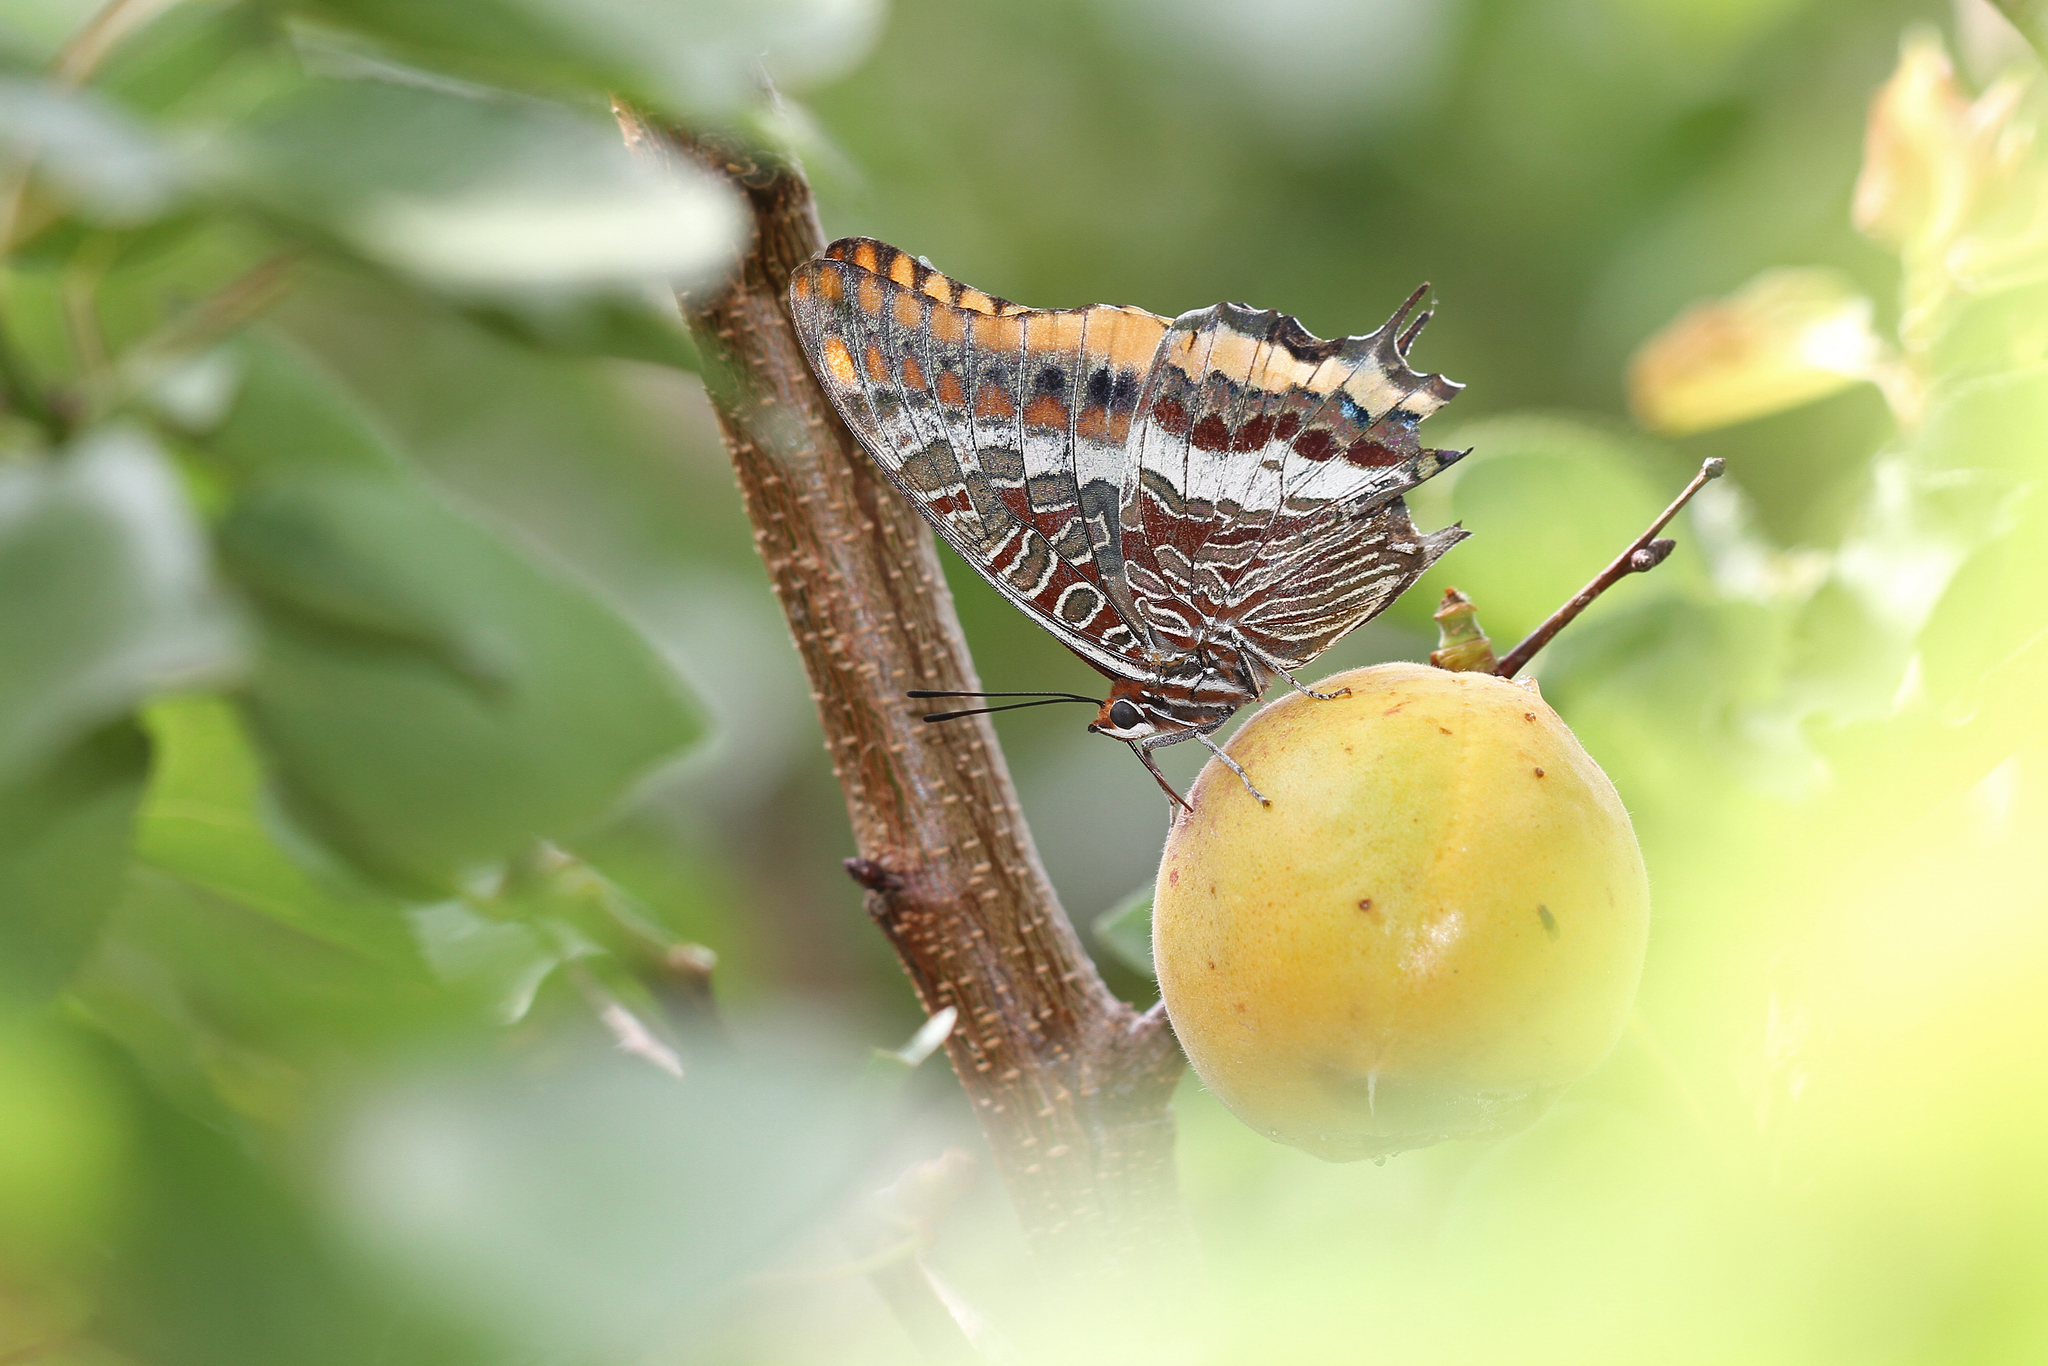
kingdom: Animalia
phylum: Arthropoda
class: Insecta
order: Lepidoptera
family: Nymphalidae
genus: Charaxes
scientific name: Charaxes jasius
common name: Two tailed pasha
